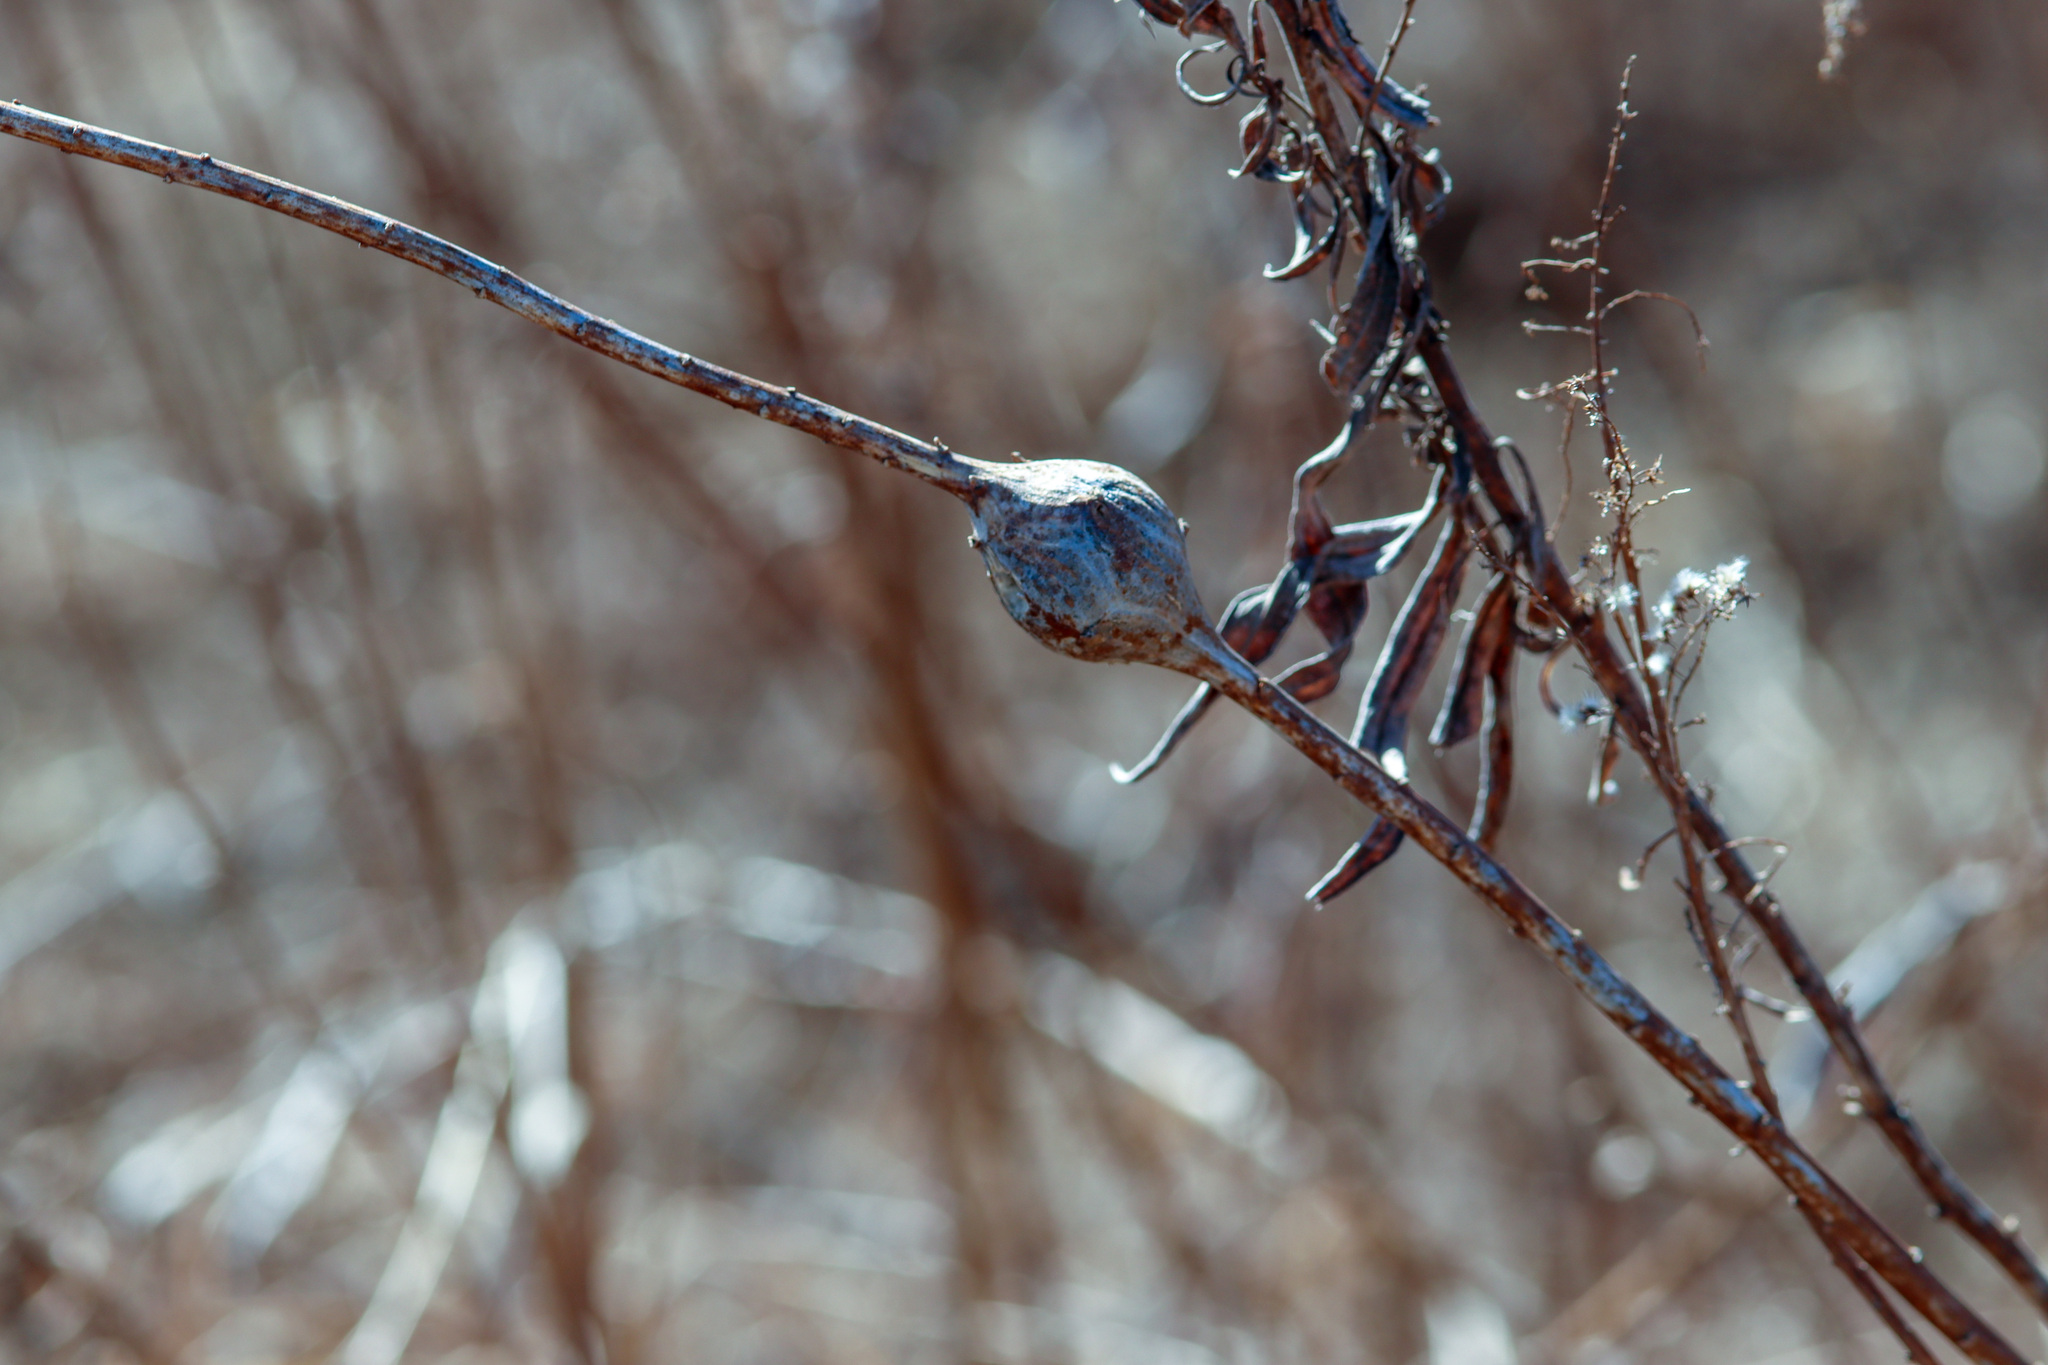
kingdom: Animalia
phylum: Arthropoda
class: Insecta
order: Diptera
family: Tephritidae
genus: Eurosta
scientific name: Eurosta solidaginis
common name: Goldenrod gall fly
